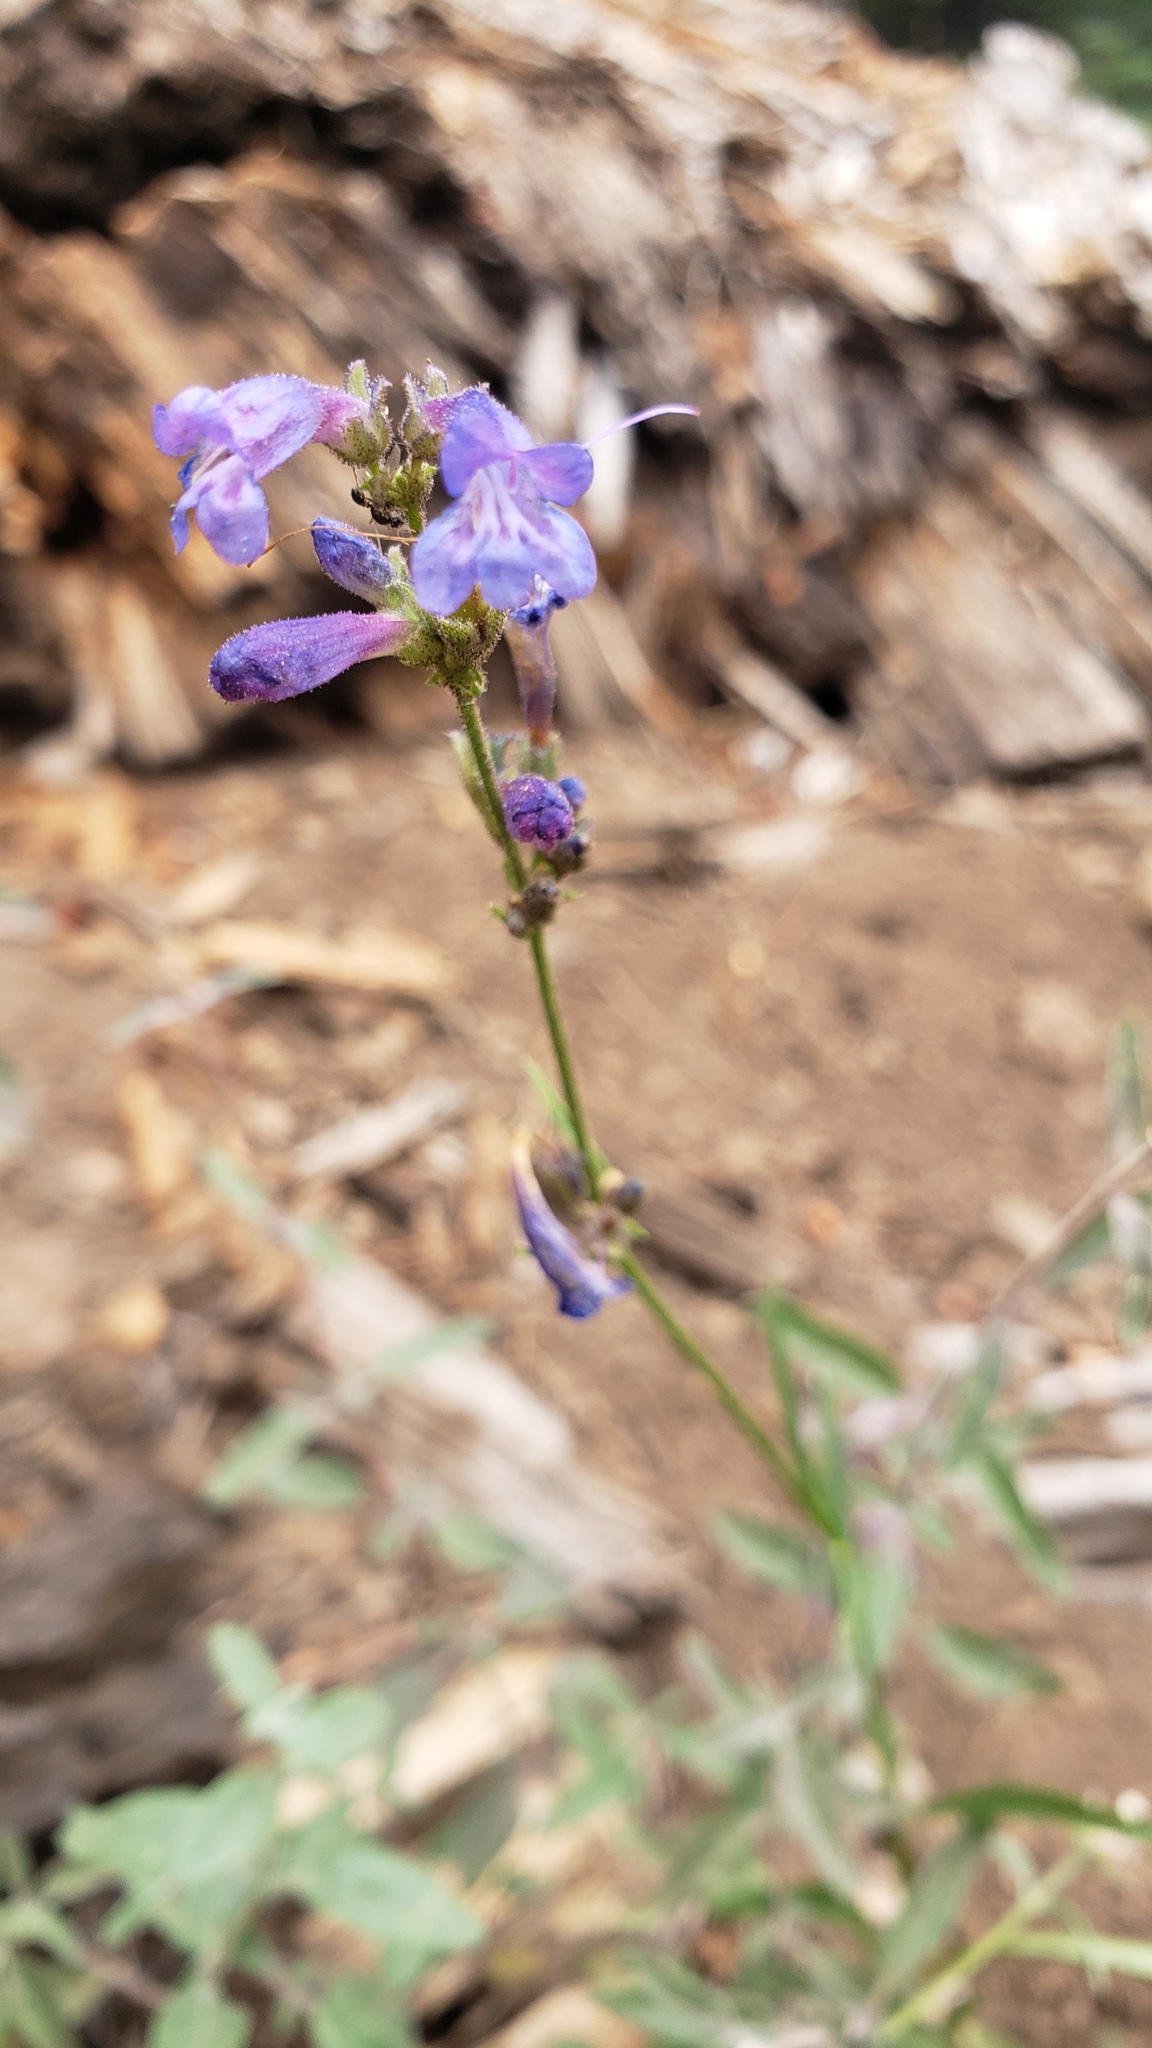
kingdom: Plantae
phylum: Tracheophyta
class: Magnoliopsida
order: Lamiales
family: Plantaginaceae
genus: Penstemon
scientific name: Penstemon gracilentus
